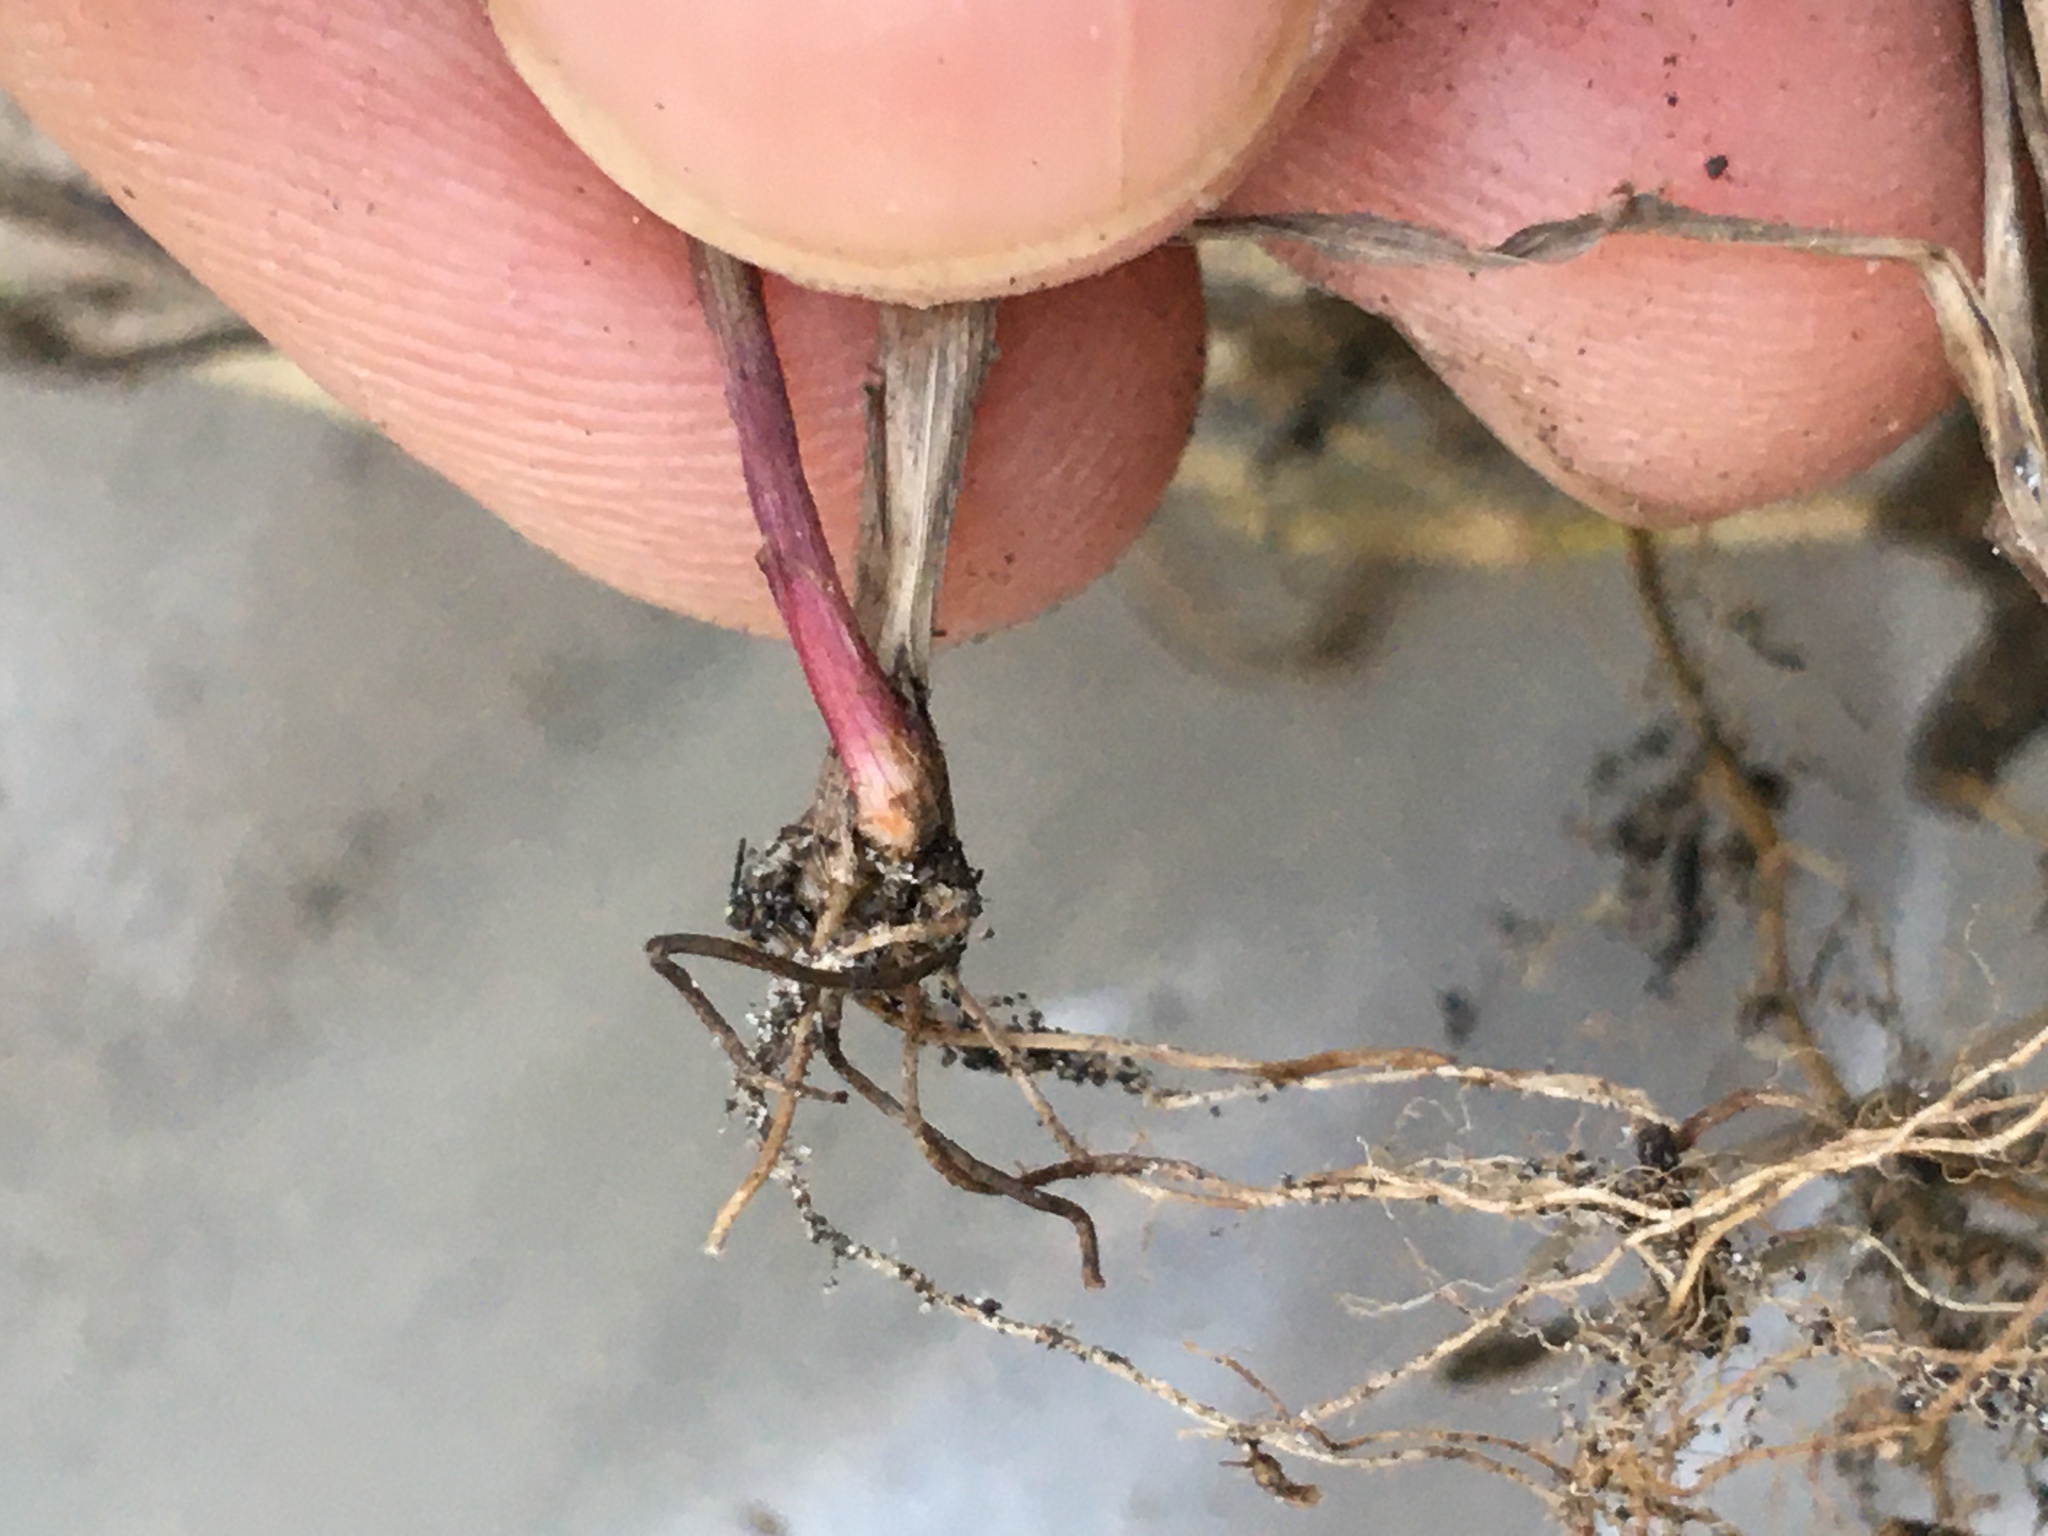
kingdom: Plantae
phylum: Tracheophyta
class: Liliopsida
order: Poales
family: Poaceae
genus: Ehrharta
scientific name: Ehrharta erecta
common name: Panic veldtgrass
